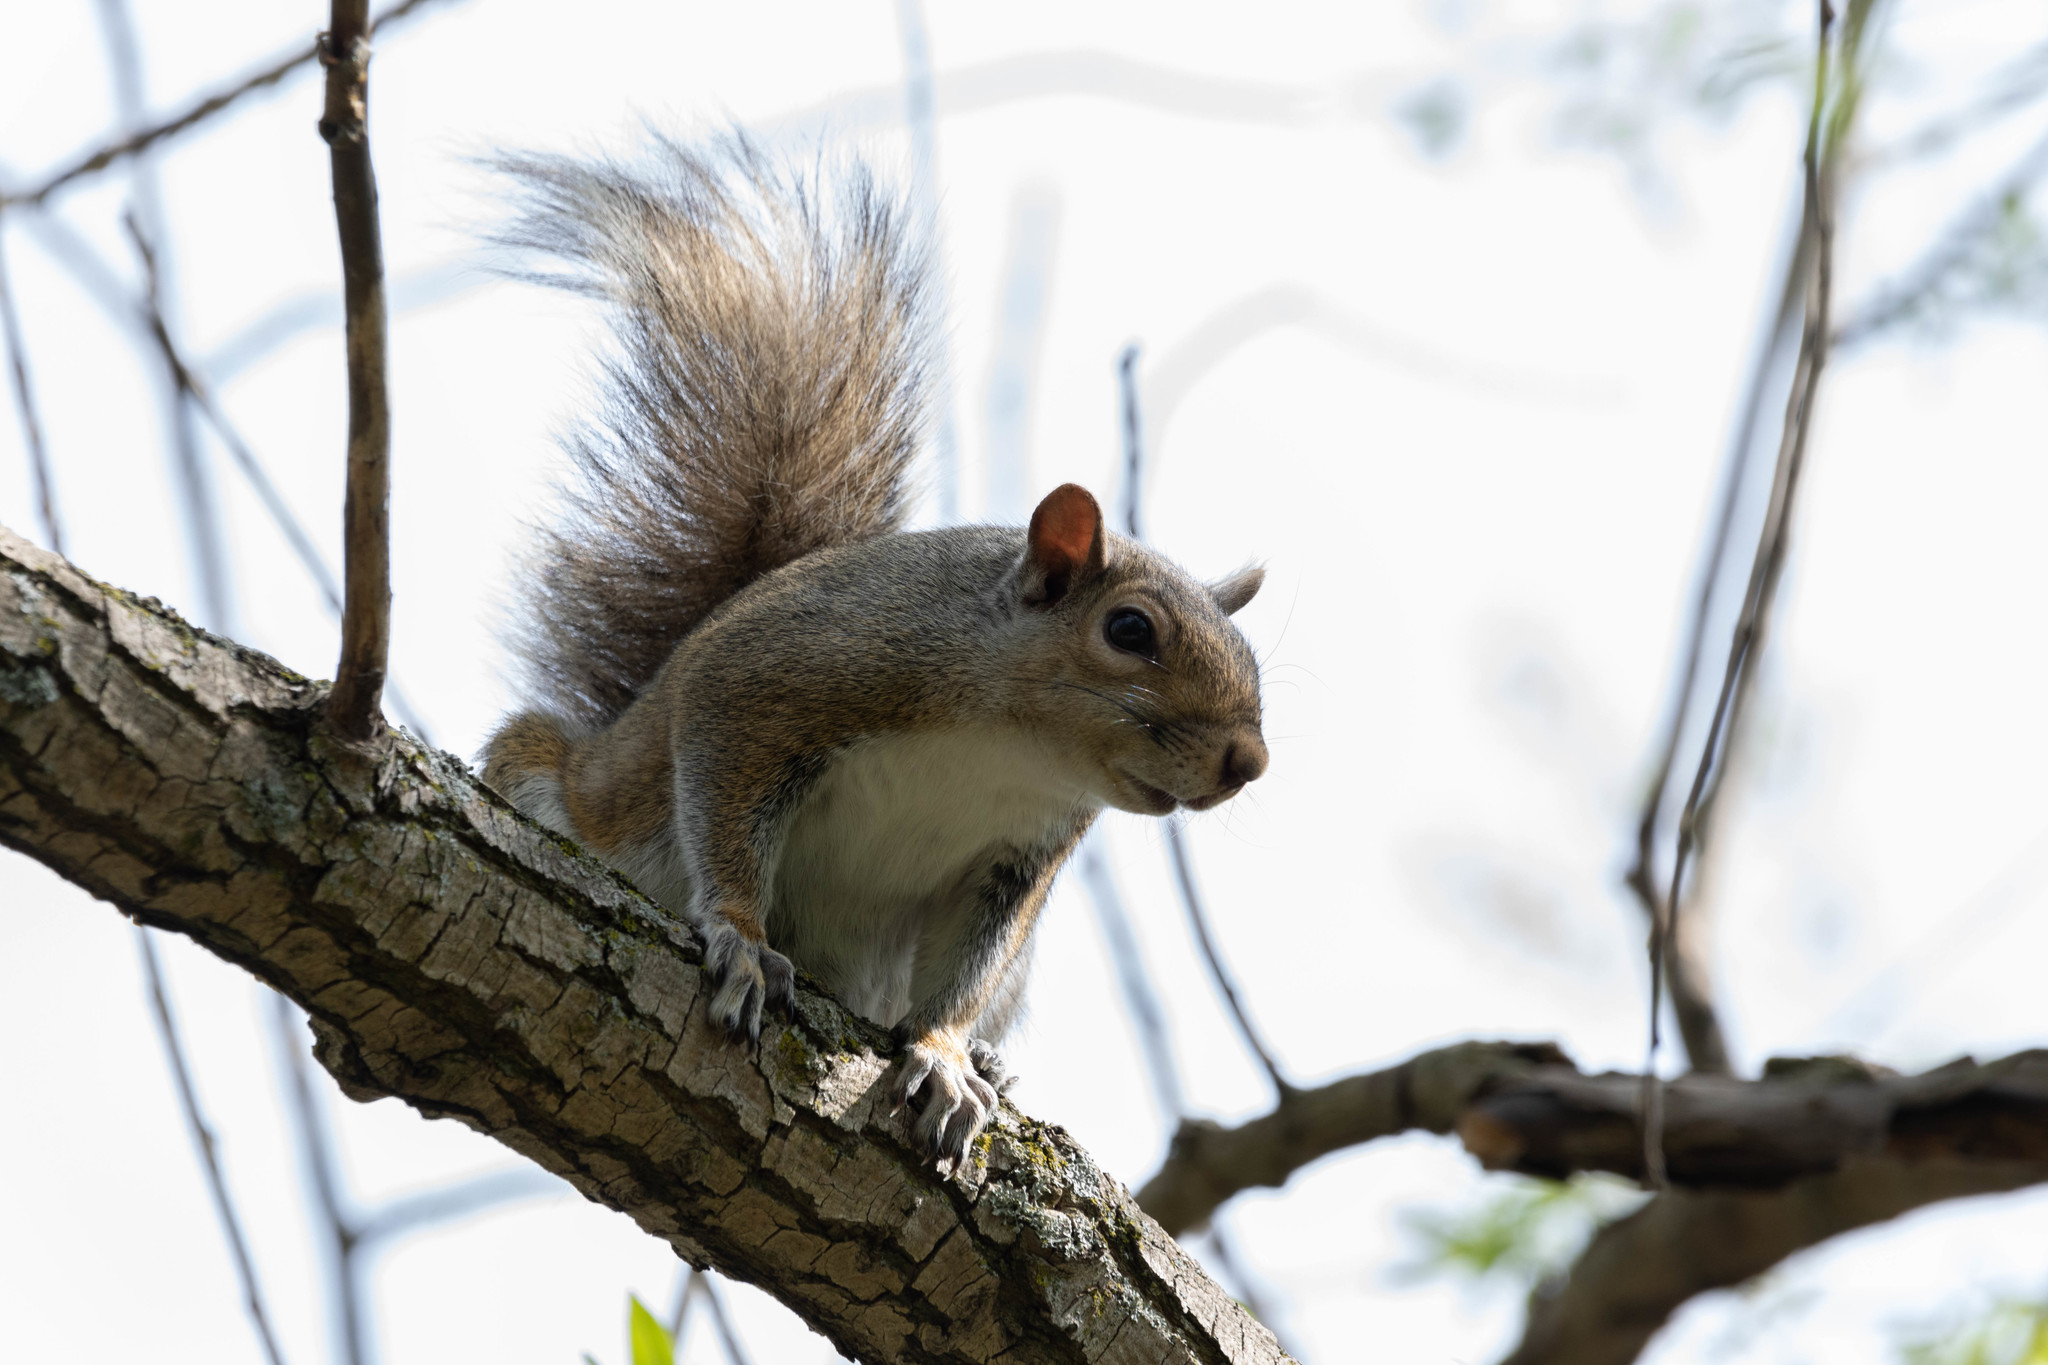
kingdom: Animalia
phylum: Chordata
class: Mammalia
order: Rodentia
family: Sciuridae
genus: Sciurus
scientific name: Sciurus carolinensis
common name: Eastern gray squirrel
